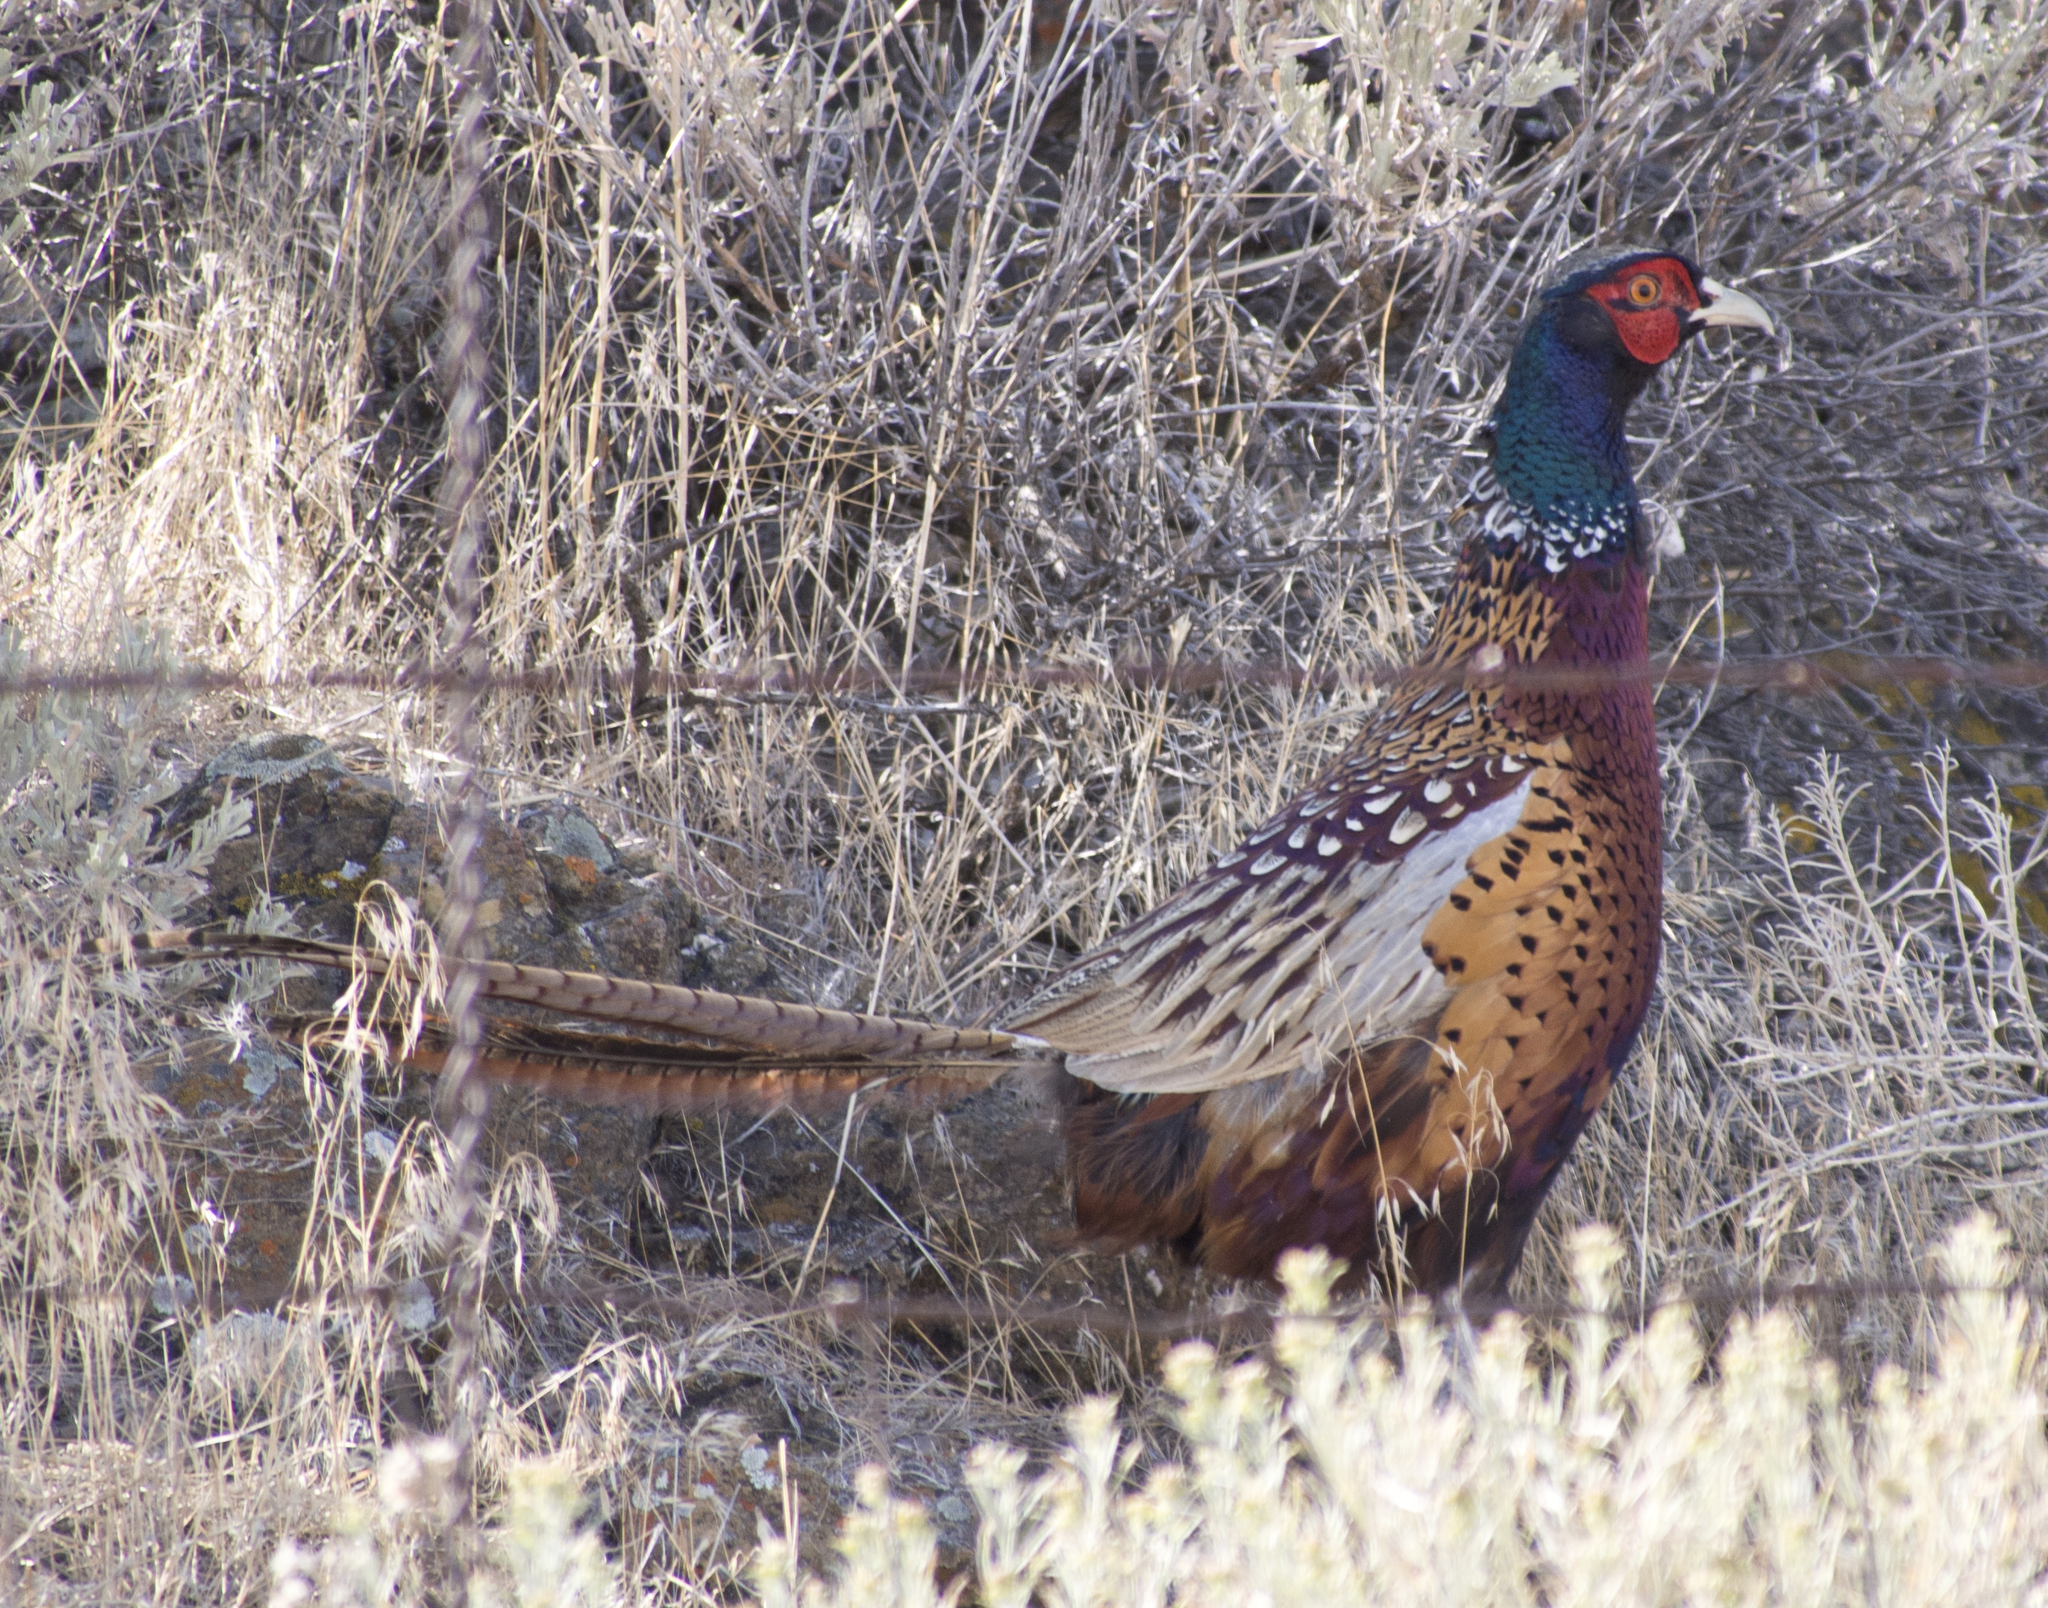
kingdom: Animalia
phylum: Chordata
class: Aves
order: Galliformes
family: Phasianidae
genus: Phasianus
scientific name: Phasianus colchicus
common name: Common pheasant
